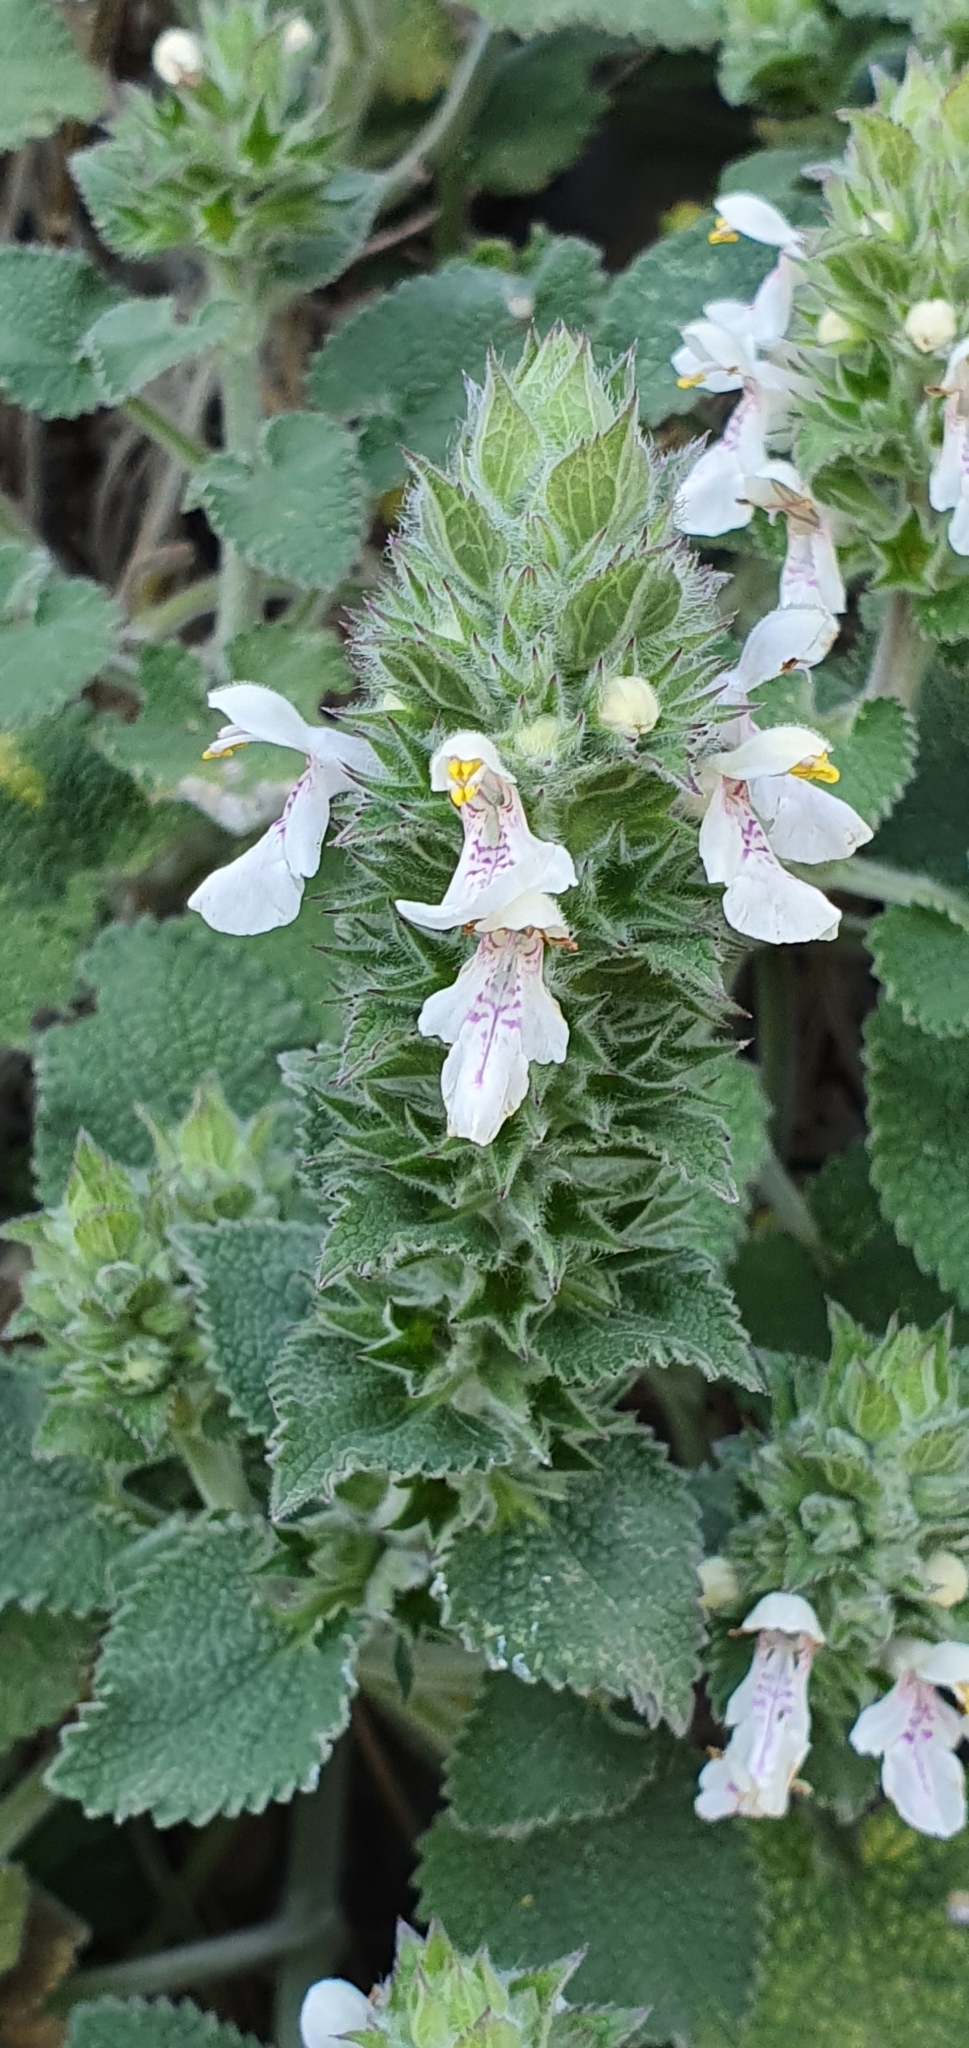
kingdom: Plantae
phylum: Tracheophyta
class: Magnoliopsida
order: Lamiales
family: Lamiaceae
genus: Stachys
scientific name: Stachys circinata
